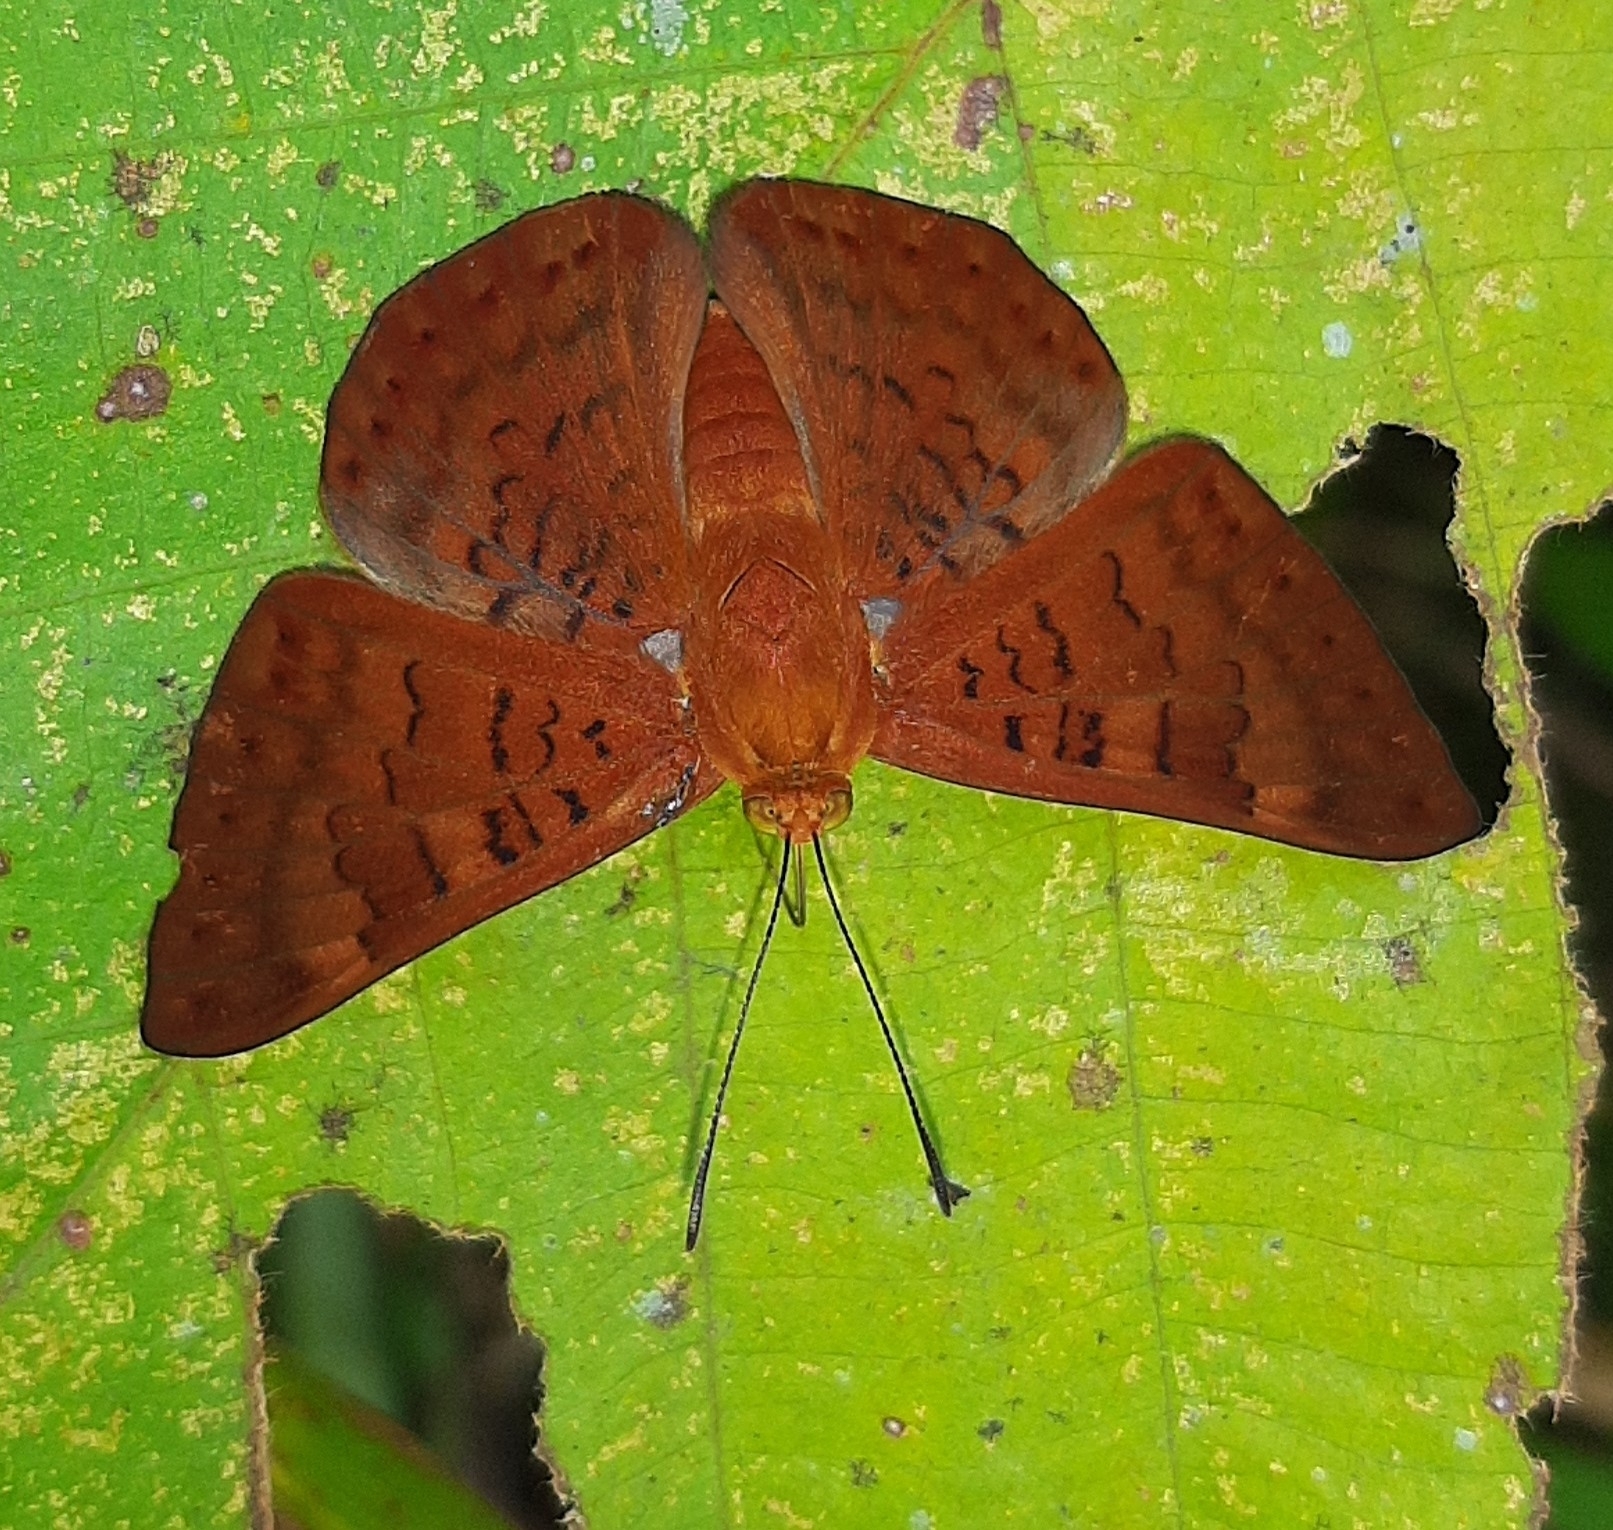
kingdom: Animalia
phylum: Arthropoda
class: Insecta
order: Lepidoptera
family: Lycaenidae
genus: Emesis
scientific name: Emesis mandana
